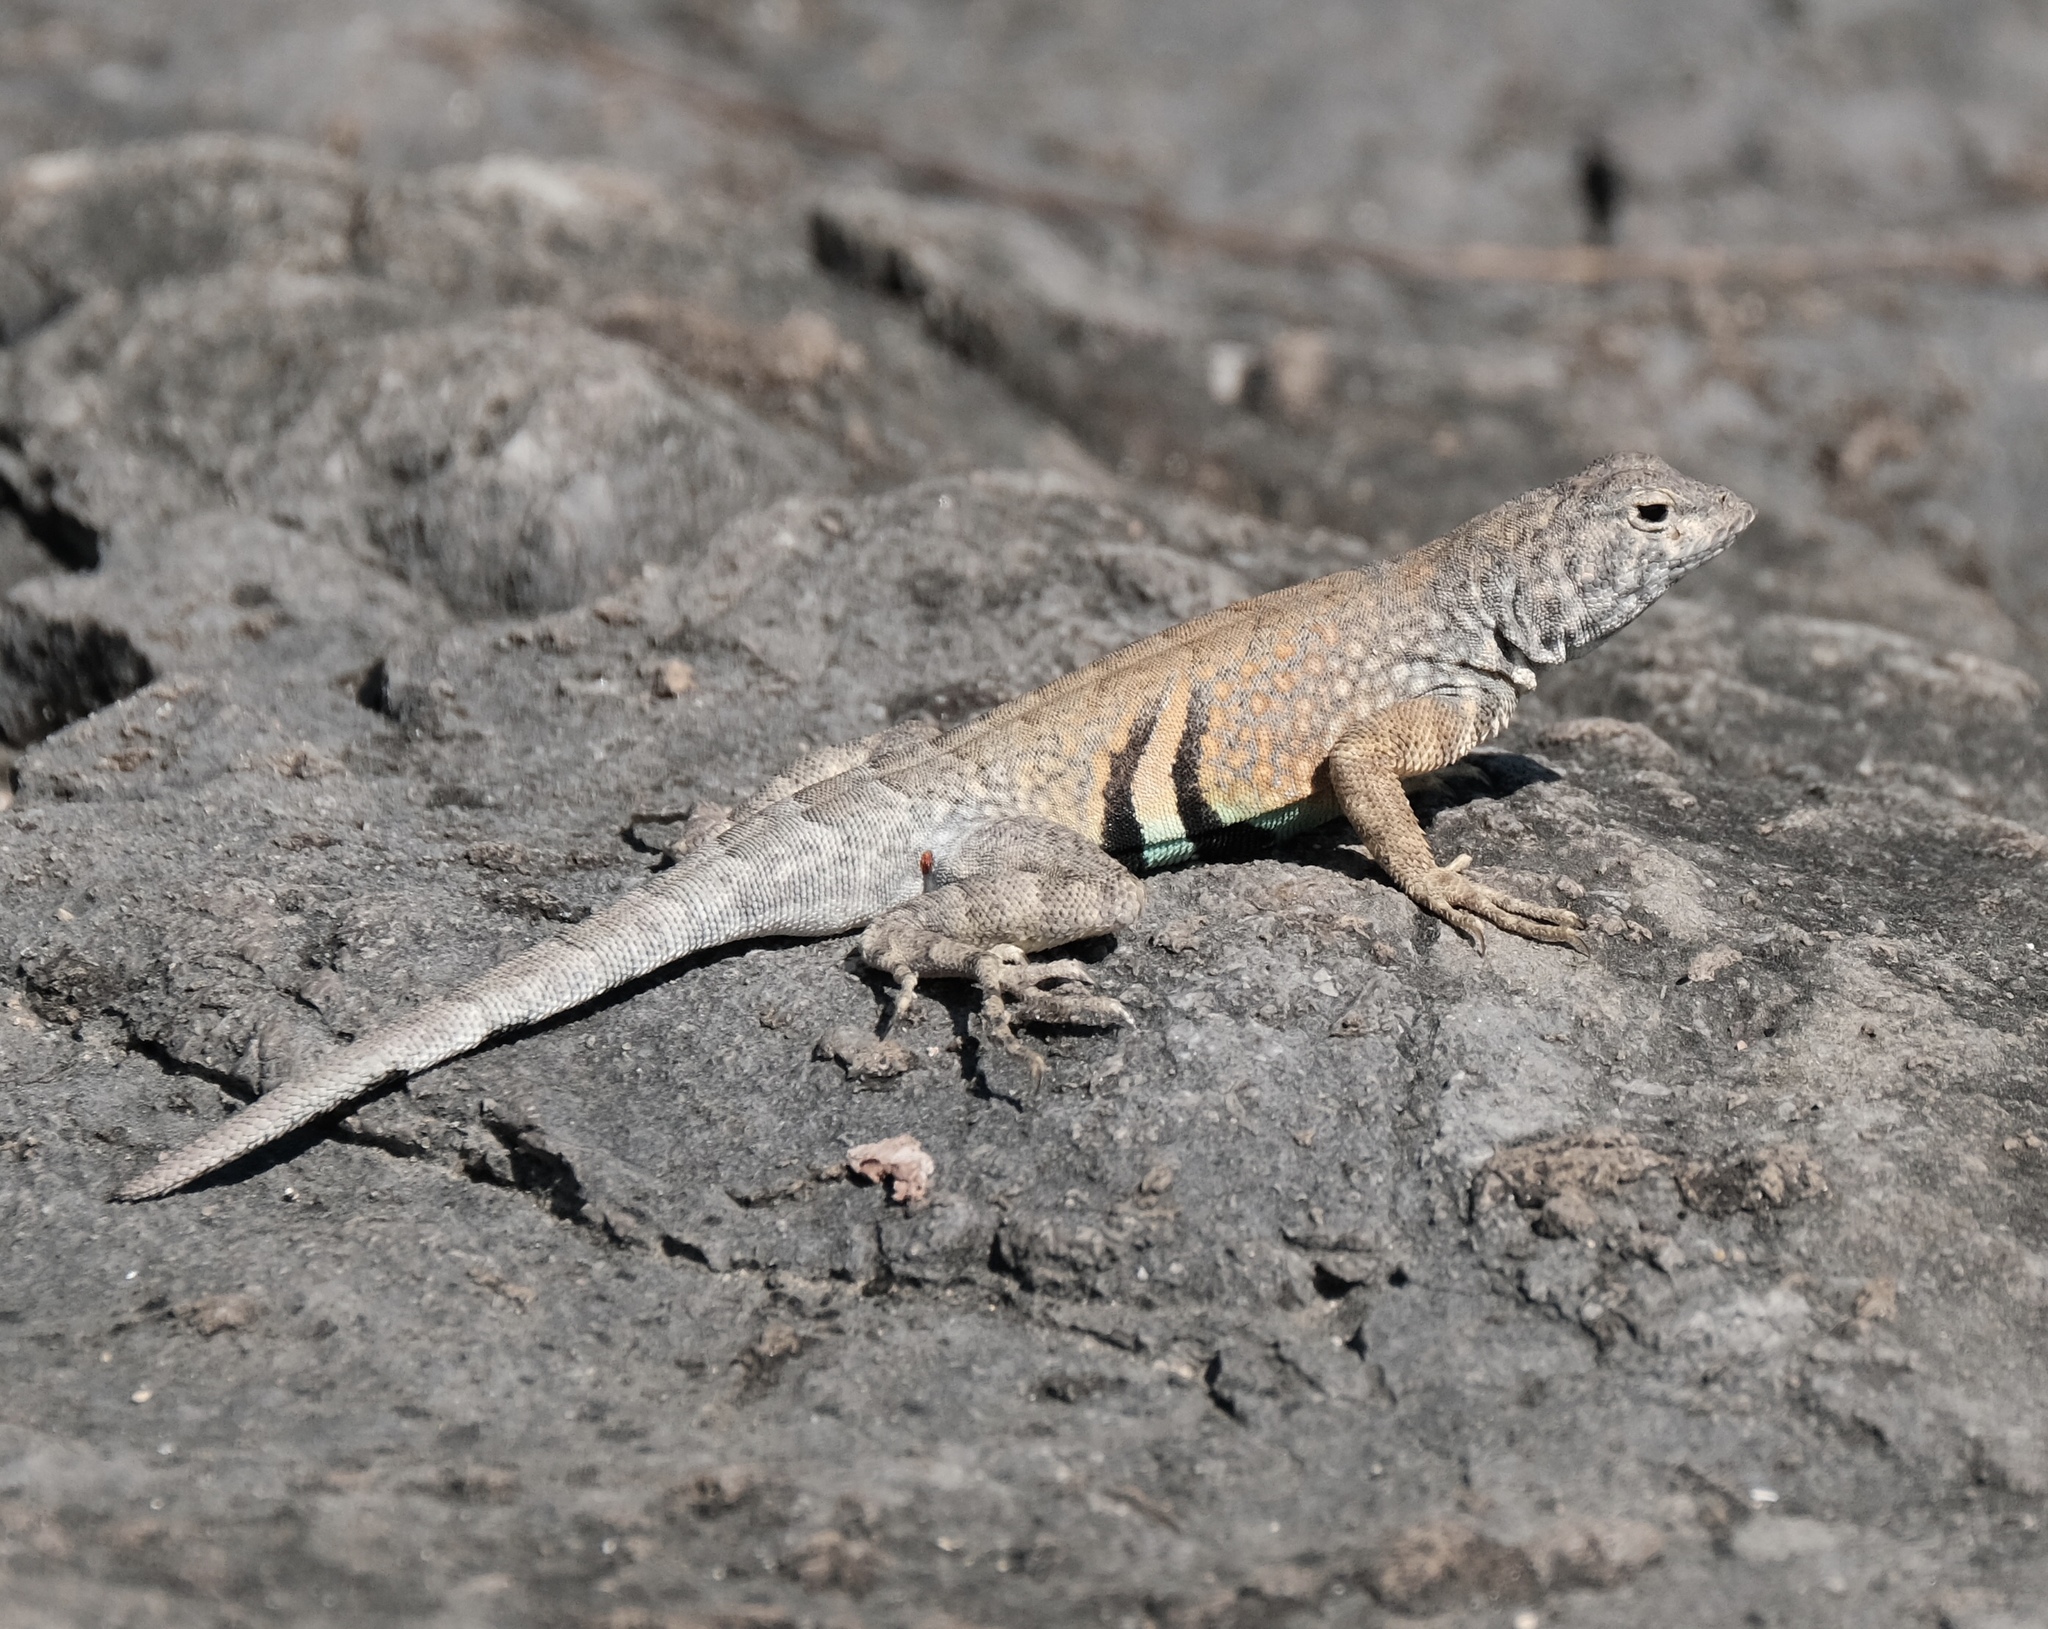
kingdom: Animalia
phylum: Chordata
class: Squamata
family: Phrynosomatidae
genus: Cophosaurus
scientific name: Cophosaurus texanus
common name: Greater earless lizard
